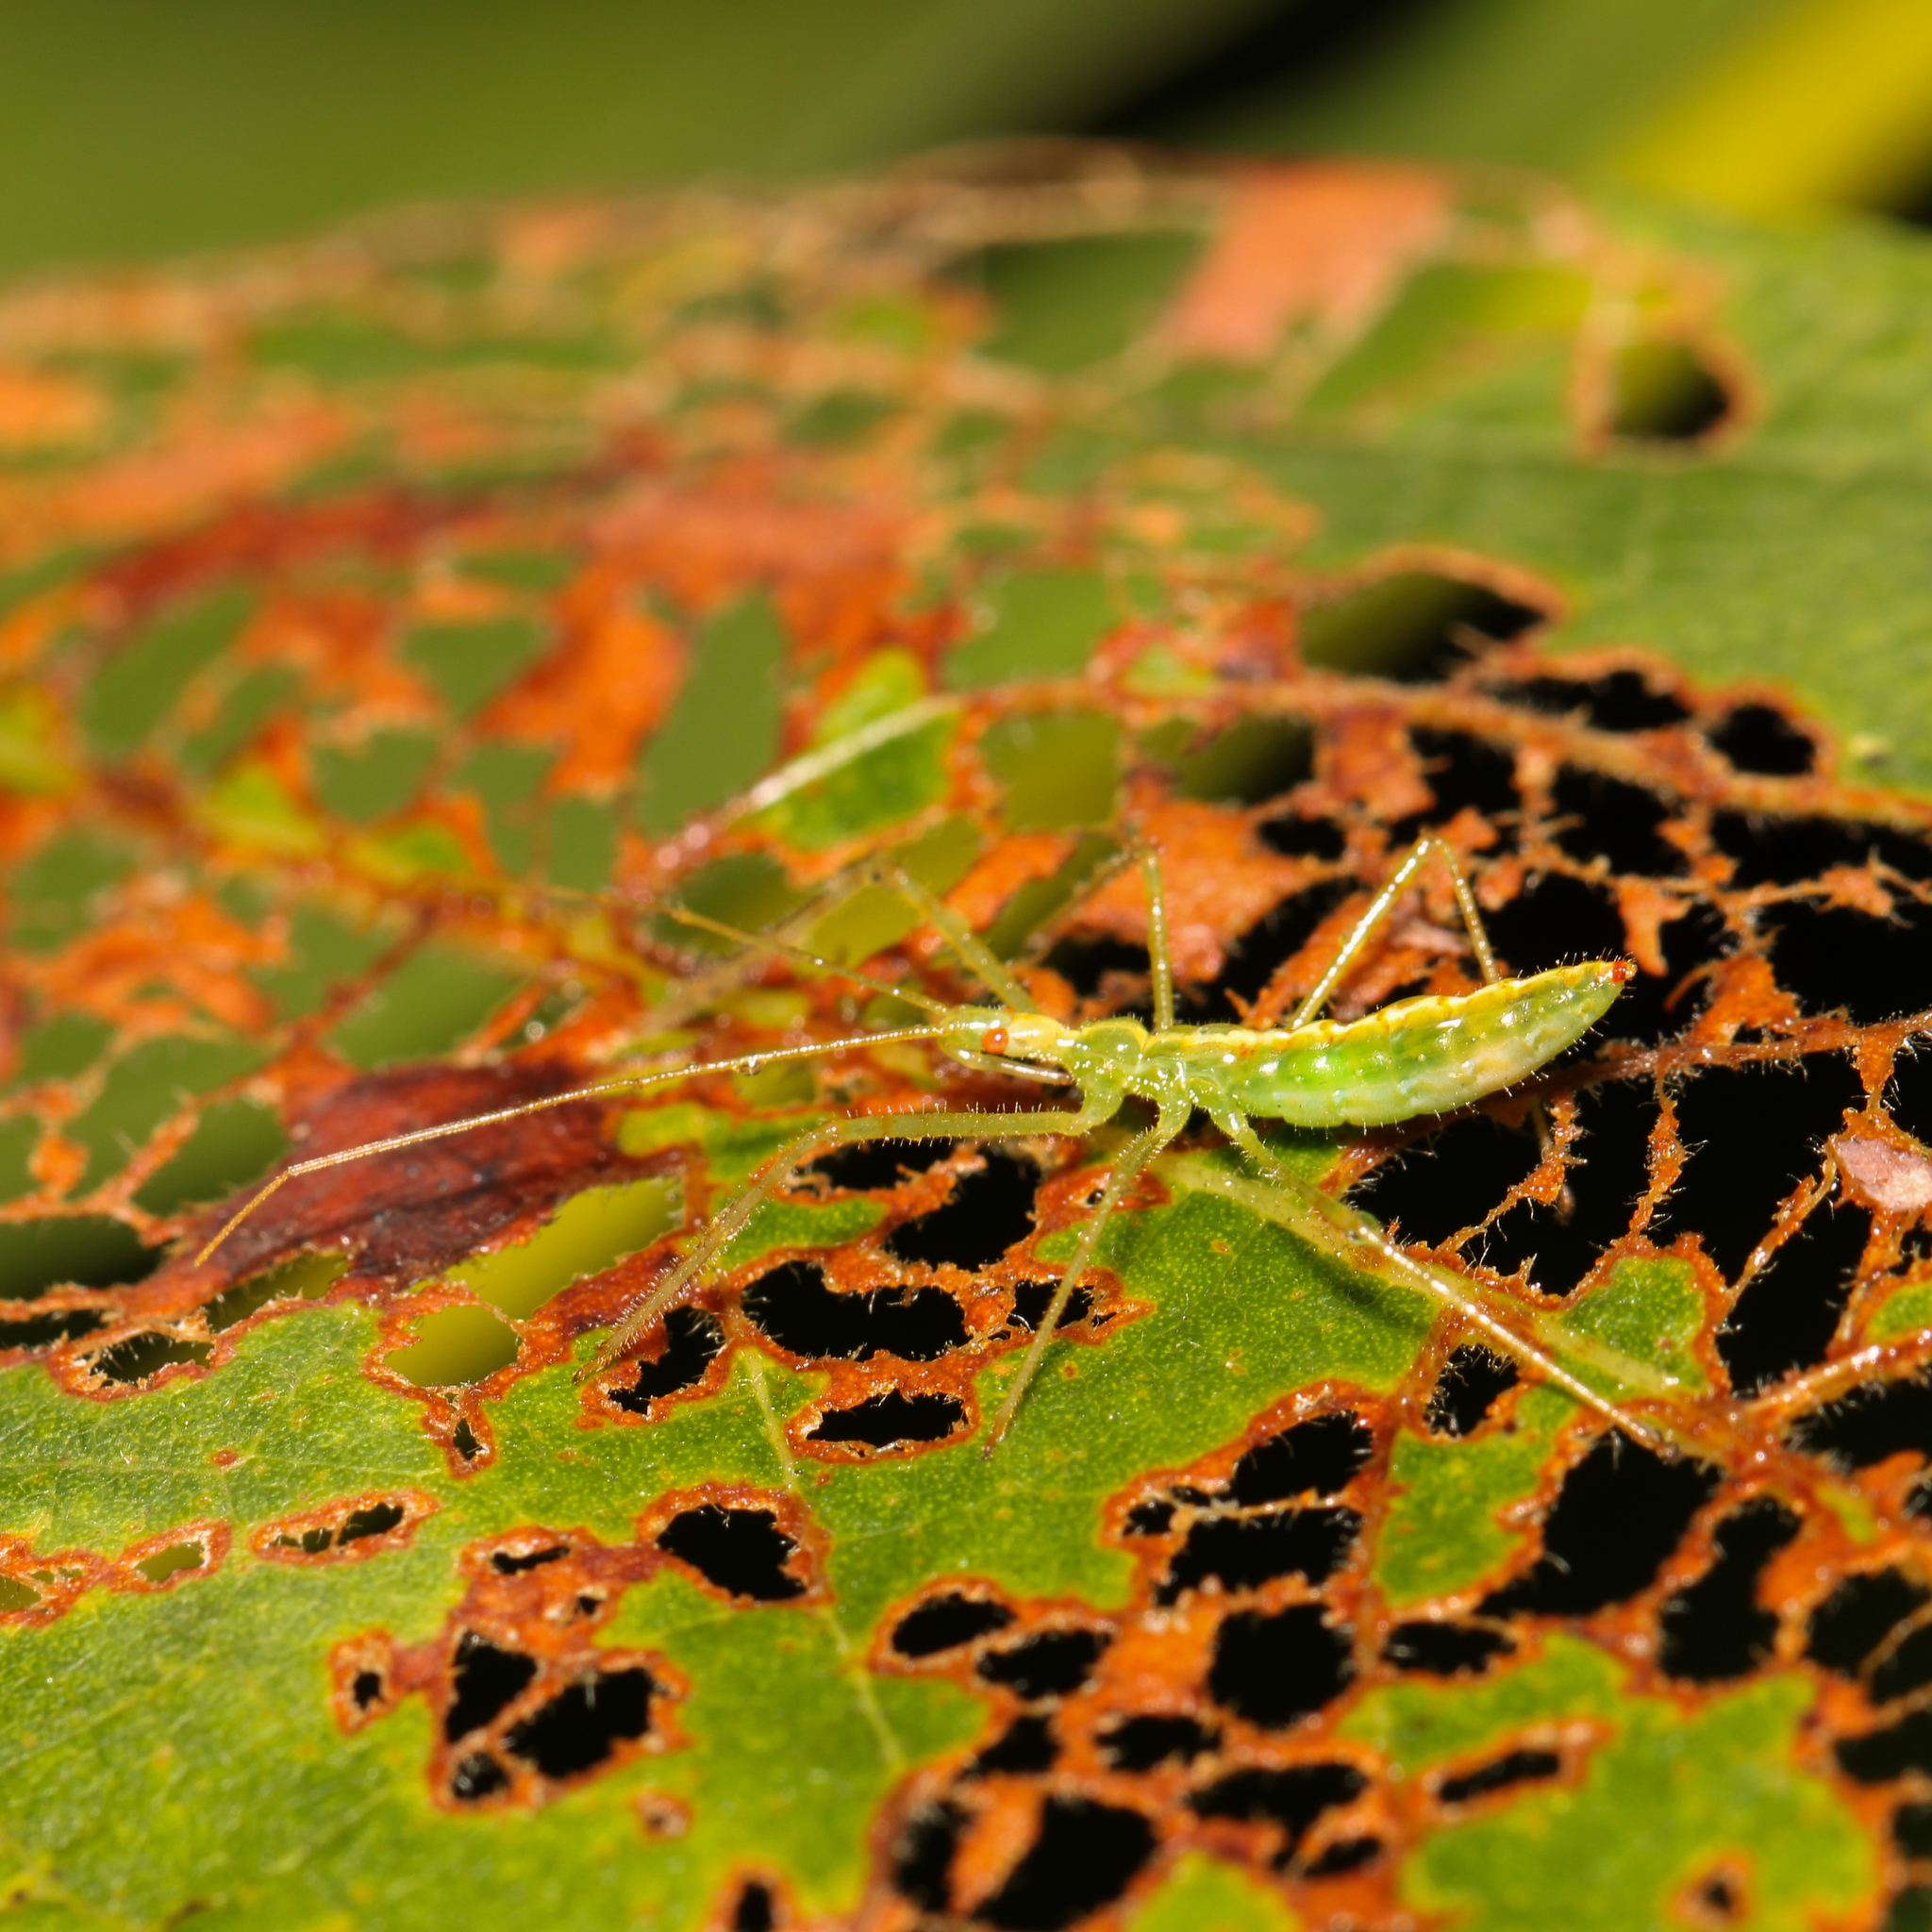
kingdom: Animalia
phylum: Arthropoda
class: Insecta
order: Hemiptera
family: Reduviidae
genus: Zelus
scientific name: Zelus luridus
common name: Pale green assassin bug
